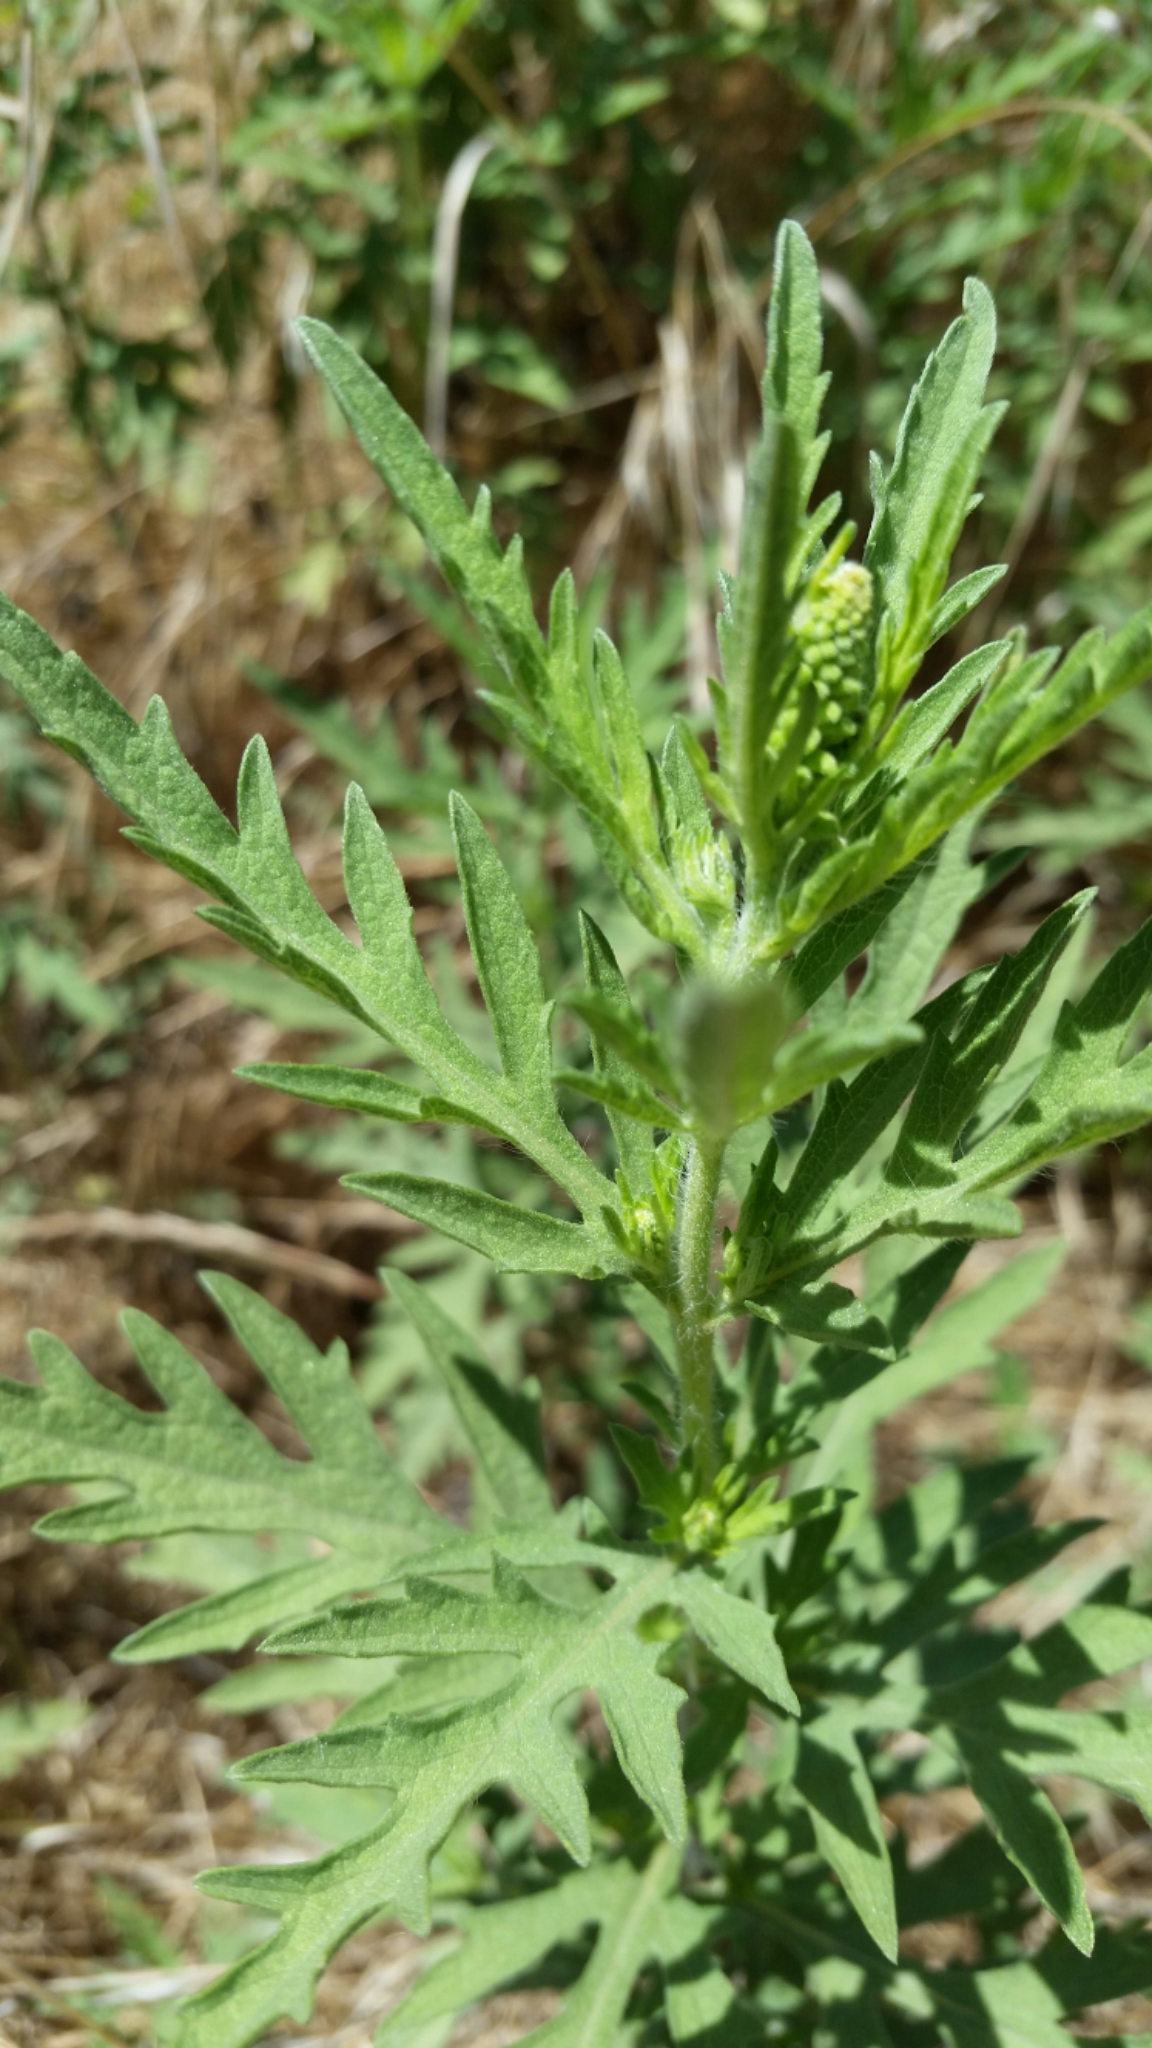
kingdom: Plantae
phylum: Tracheophyta
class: Magnoliopsida
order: Asterales
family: Asteraceae
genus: Ambrosia
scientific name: Ambrosia psilostachya
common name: Perennial ragweed
